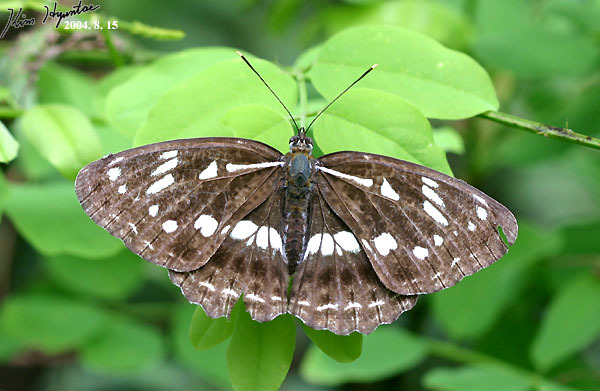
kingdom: Animalia
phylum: Arthropoda
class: Insecta
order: Lepidoptera
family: Nymphalidae
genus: Limenitis
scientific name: Limenitis helmanni
